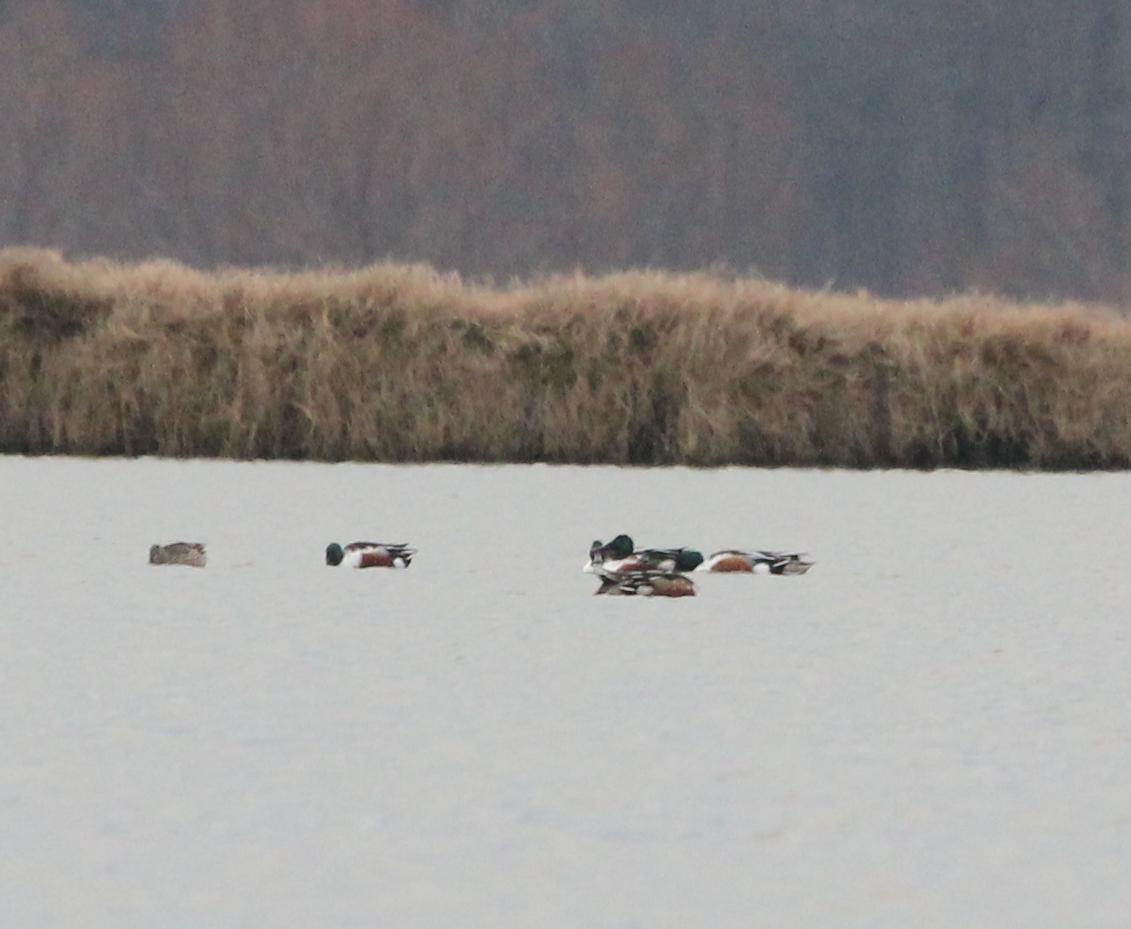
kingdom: Animalia
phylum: Chordata
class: Aves
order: Anseriformes
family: Anatidae
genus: Spatula
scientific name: Spatula clypeata
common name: Northern shoveler
